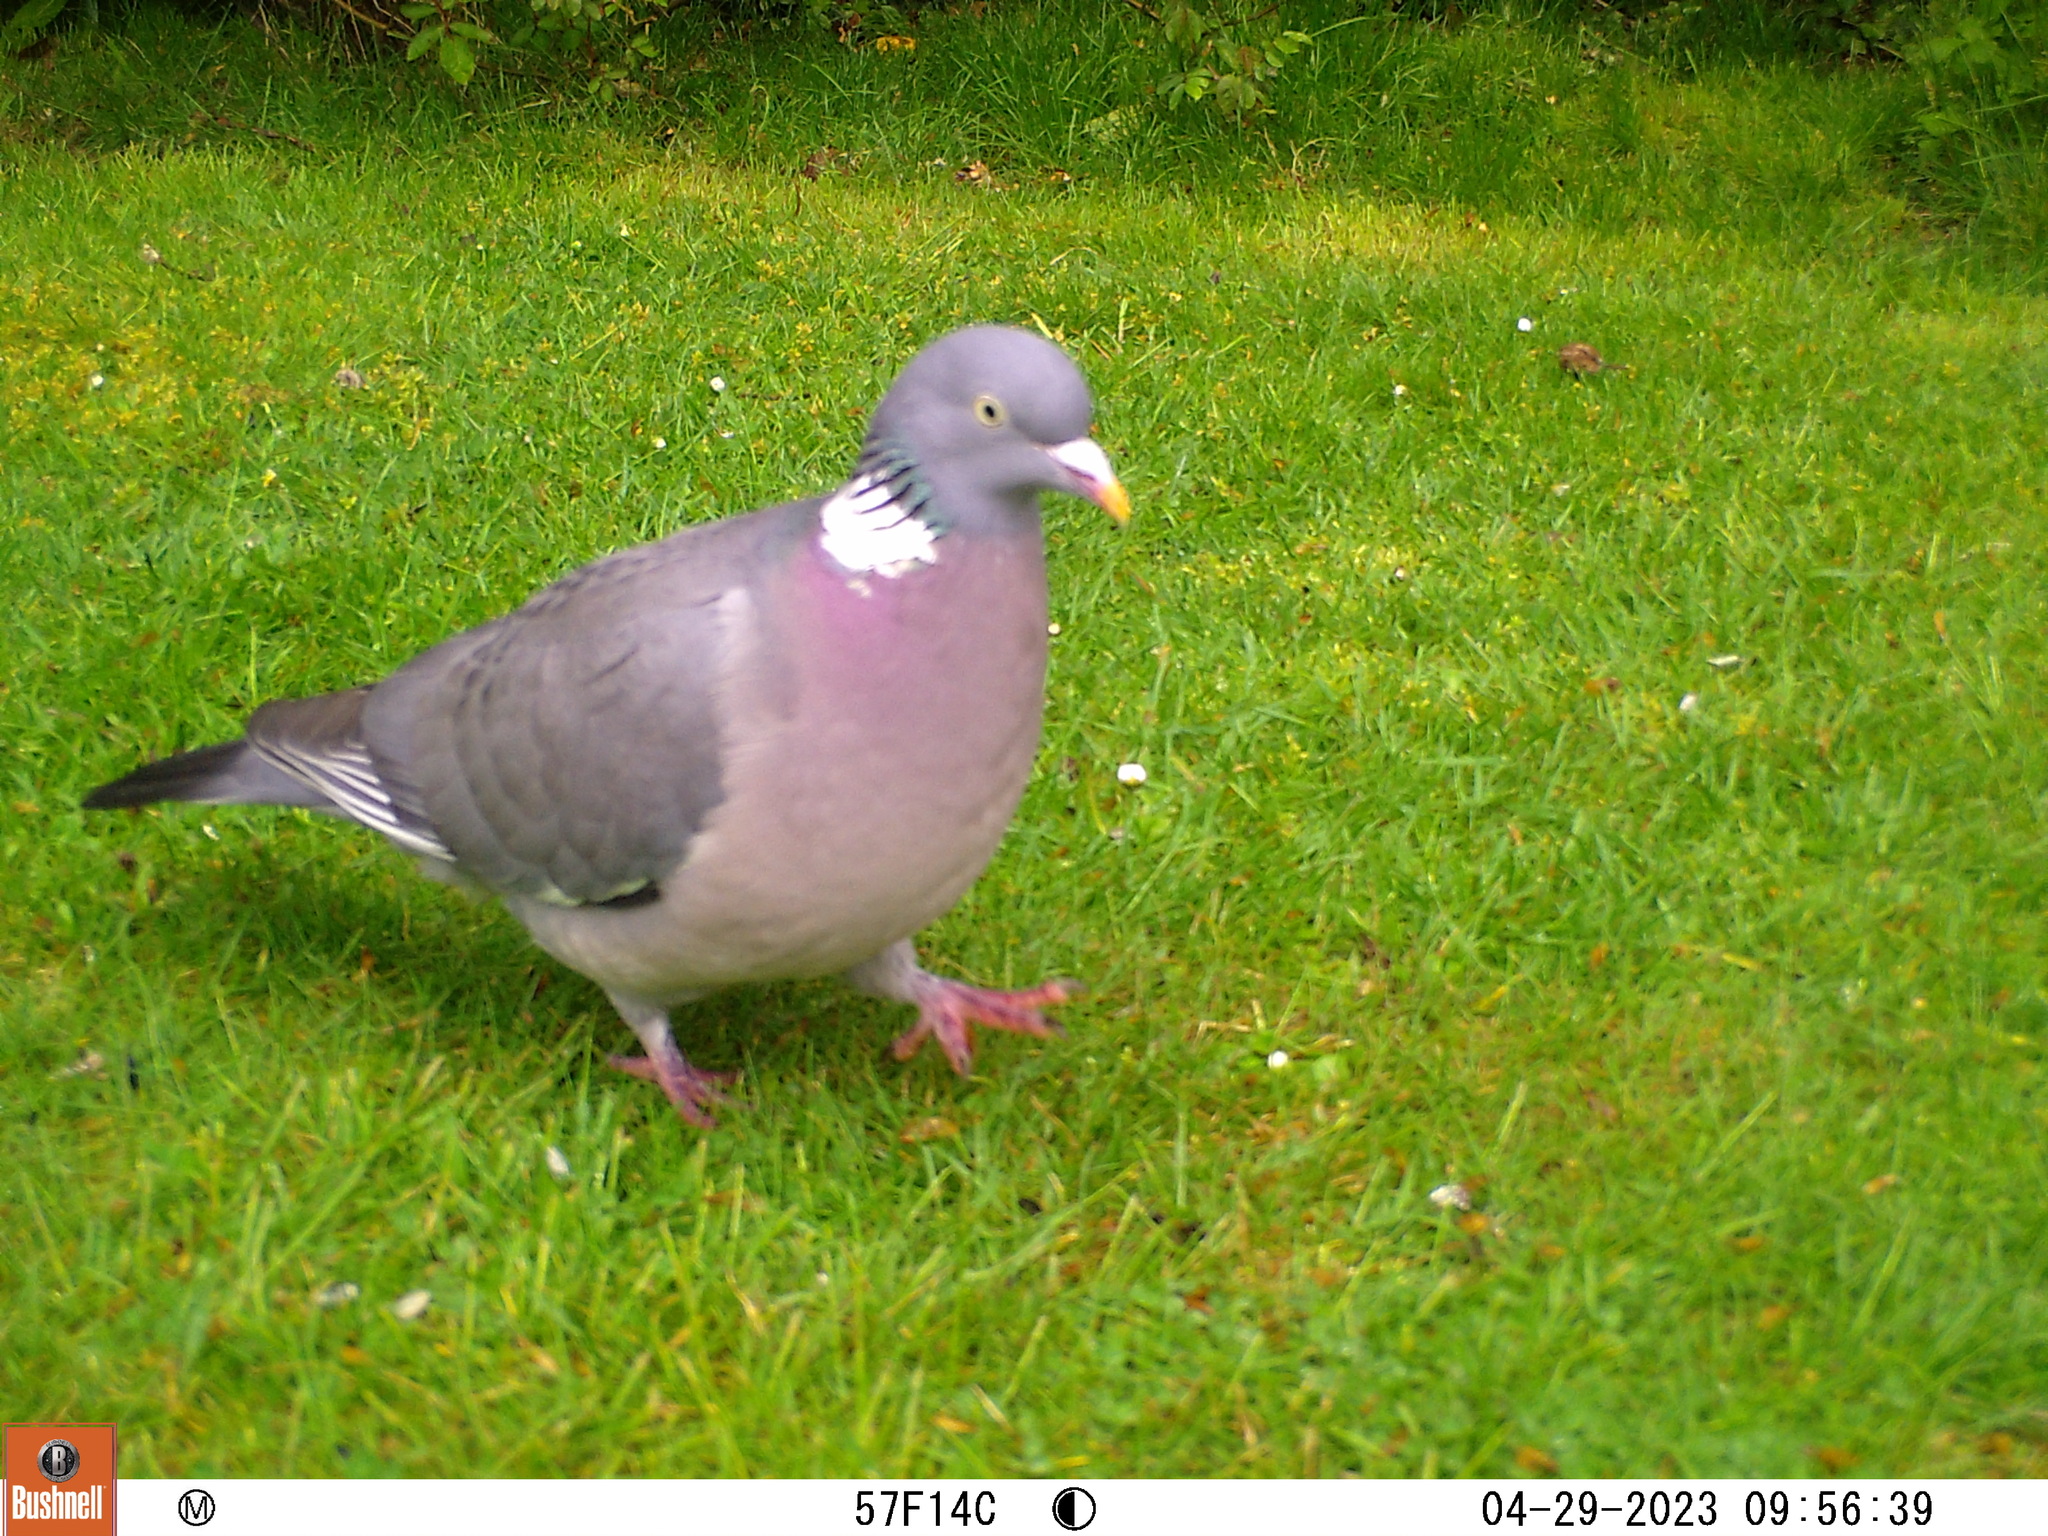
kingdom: Animalia
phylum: Chordata
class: Aves
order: Columbiformes
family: Columbidae
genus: Columba
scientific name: Columba palumbus
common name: Common wood pigeon
